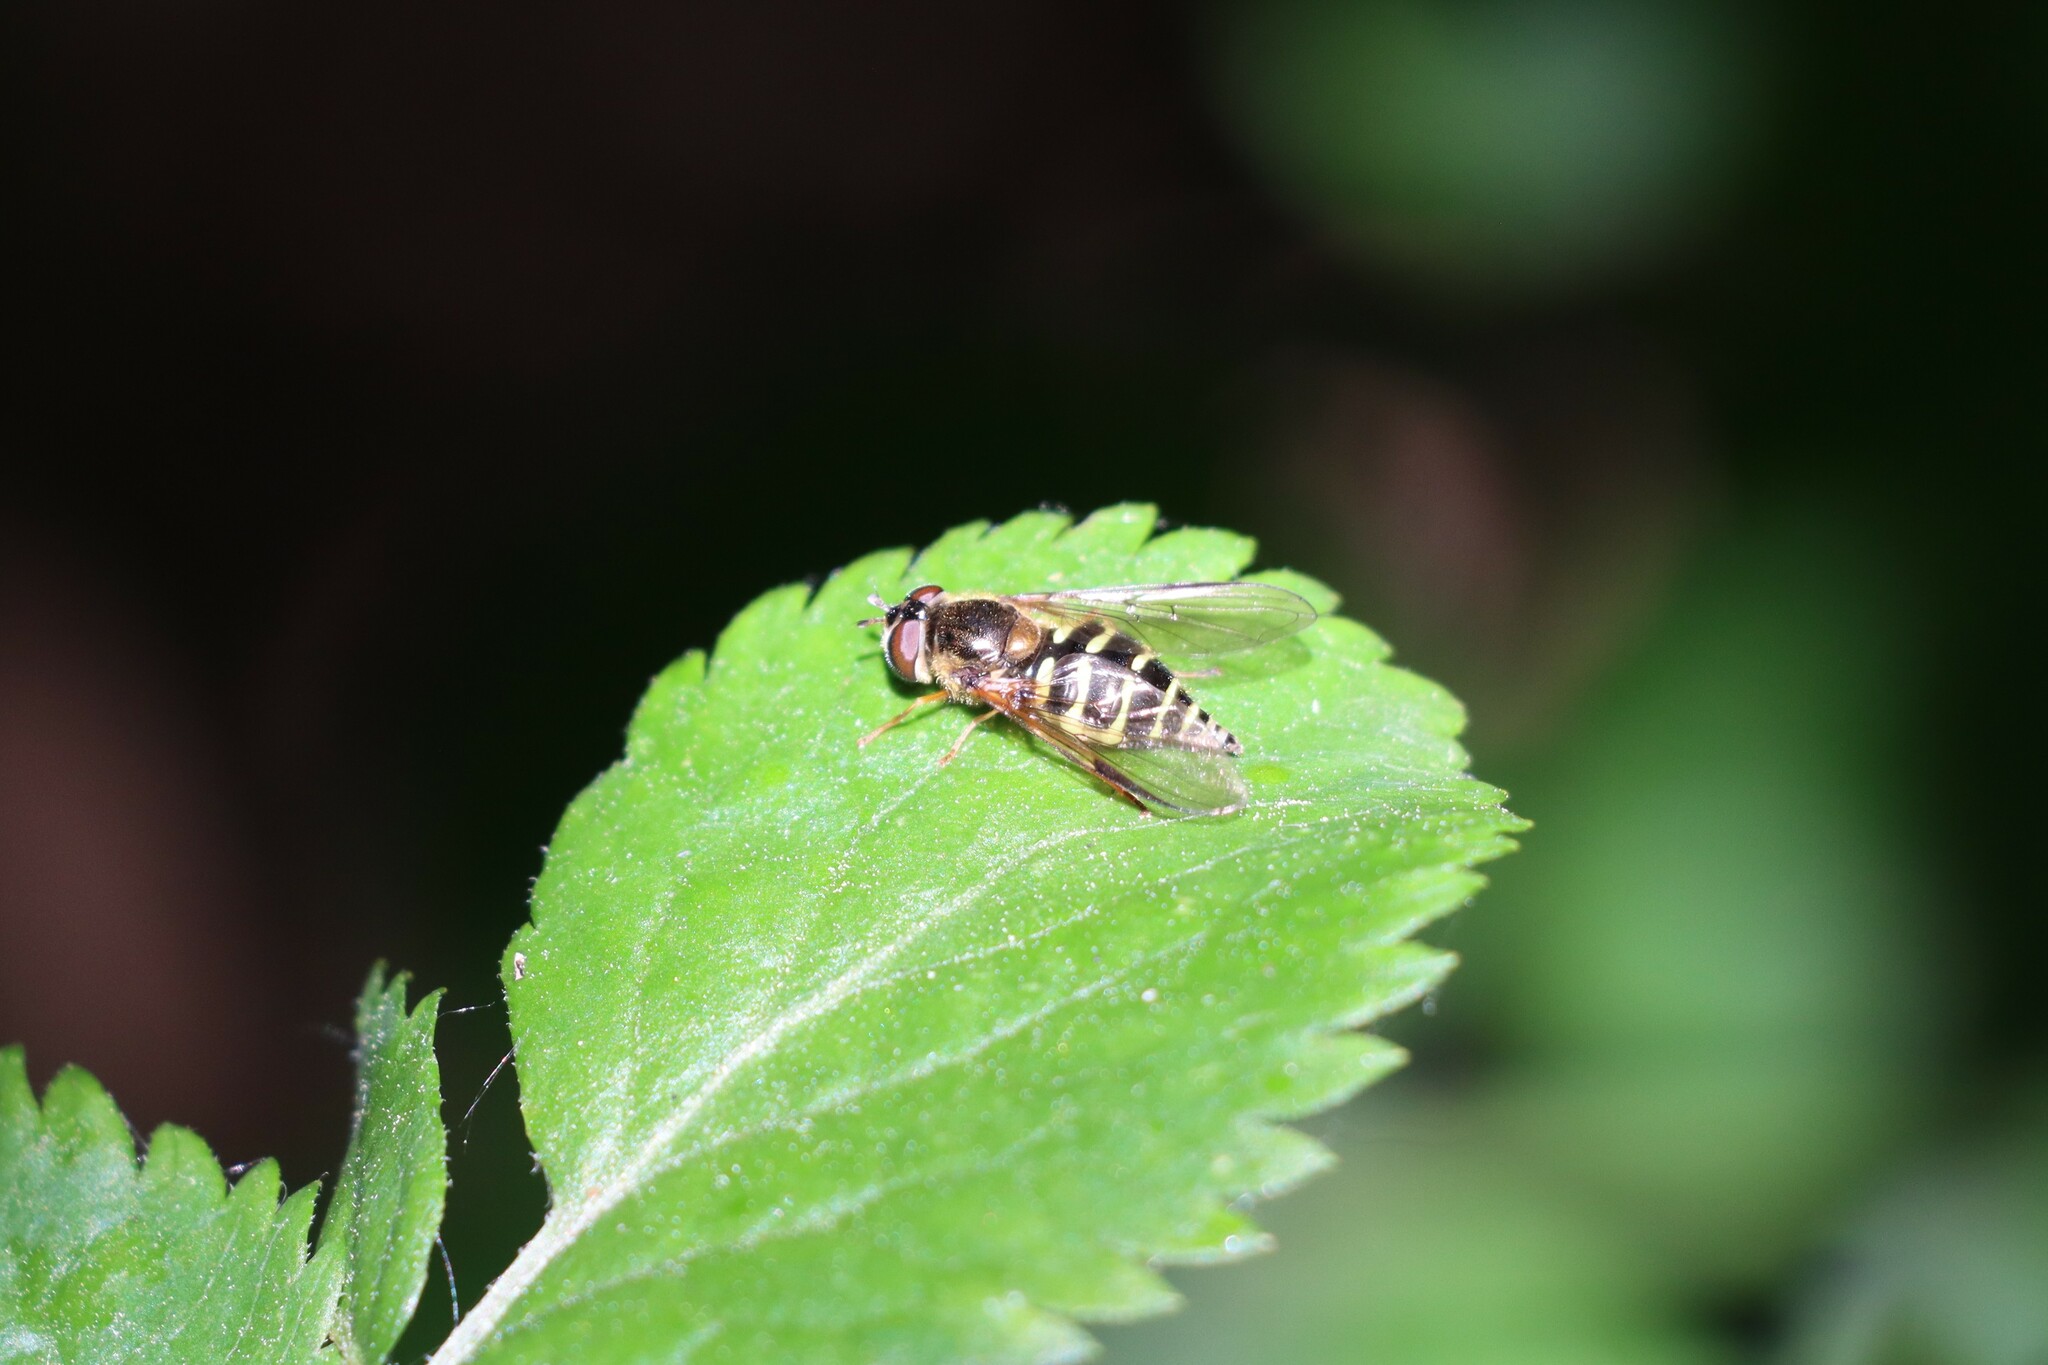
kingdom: Animalia
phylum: Arthropoda
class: Insecta
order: Diptera
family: Syrphidae
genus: Dasysyrphus
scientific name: Dasysyrphus
